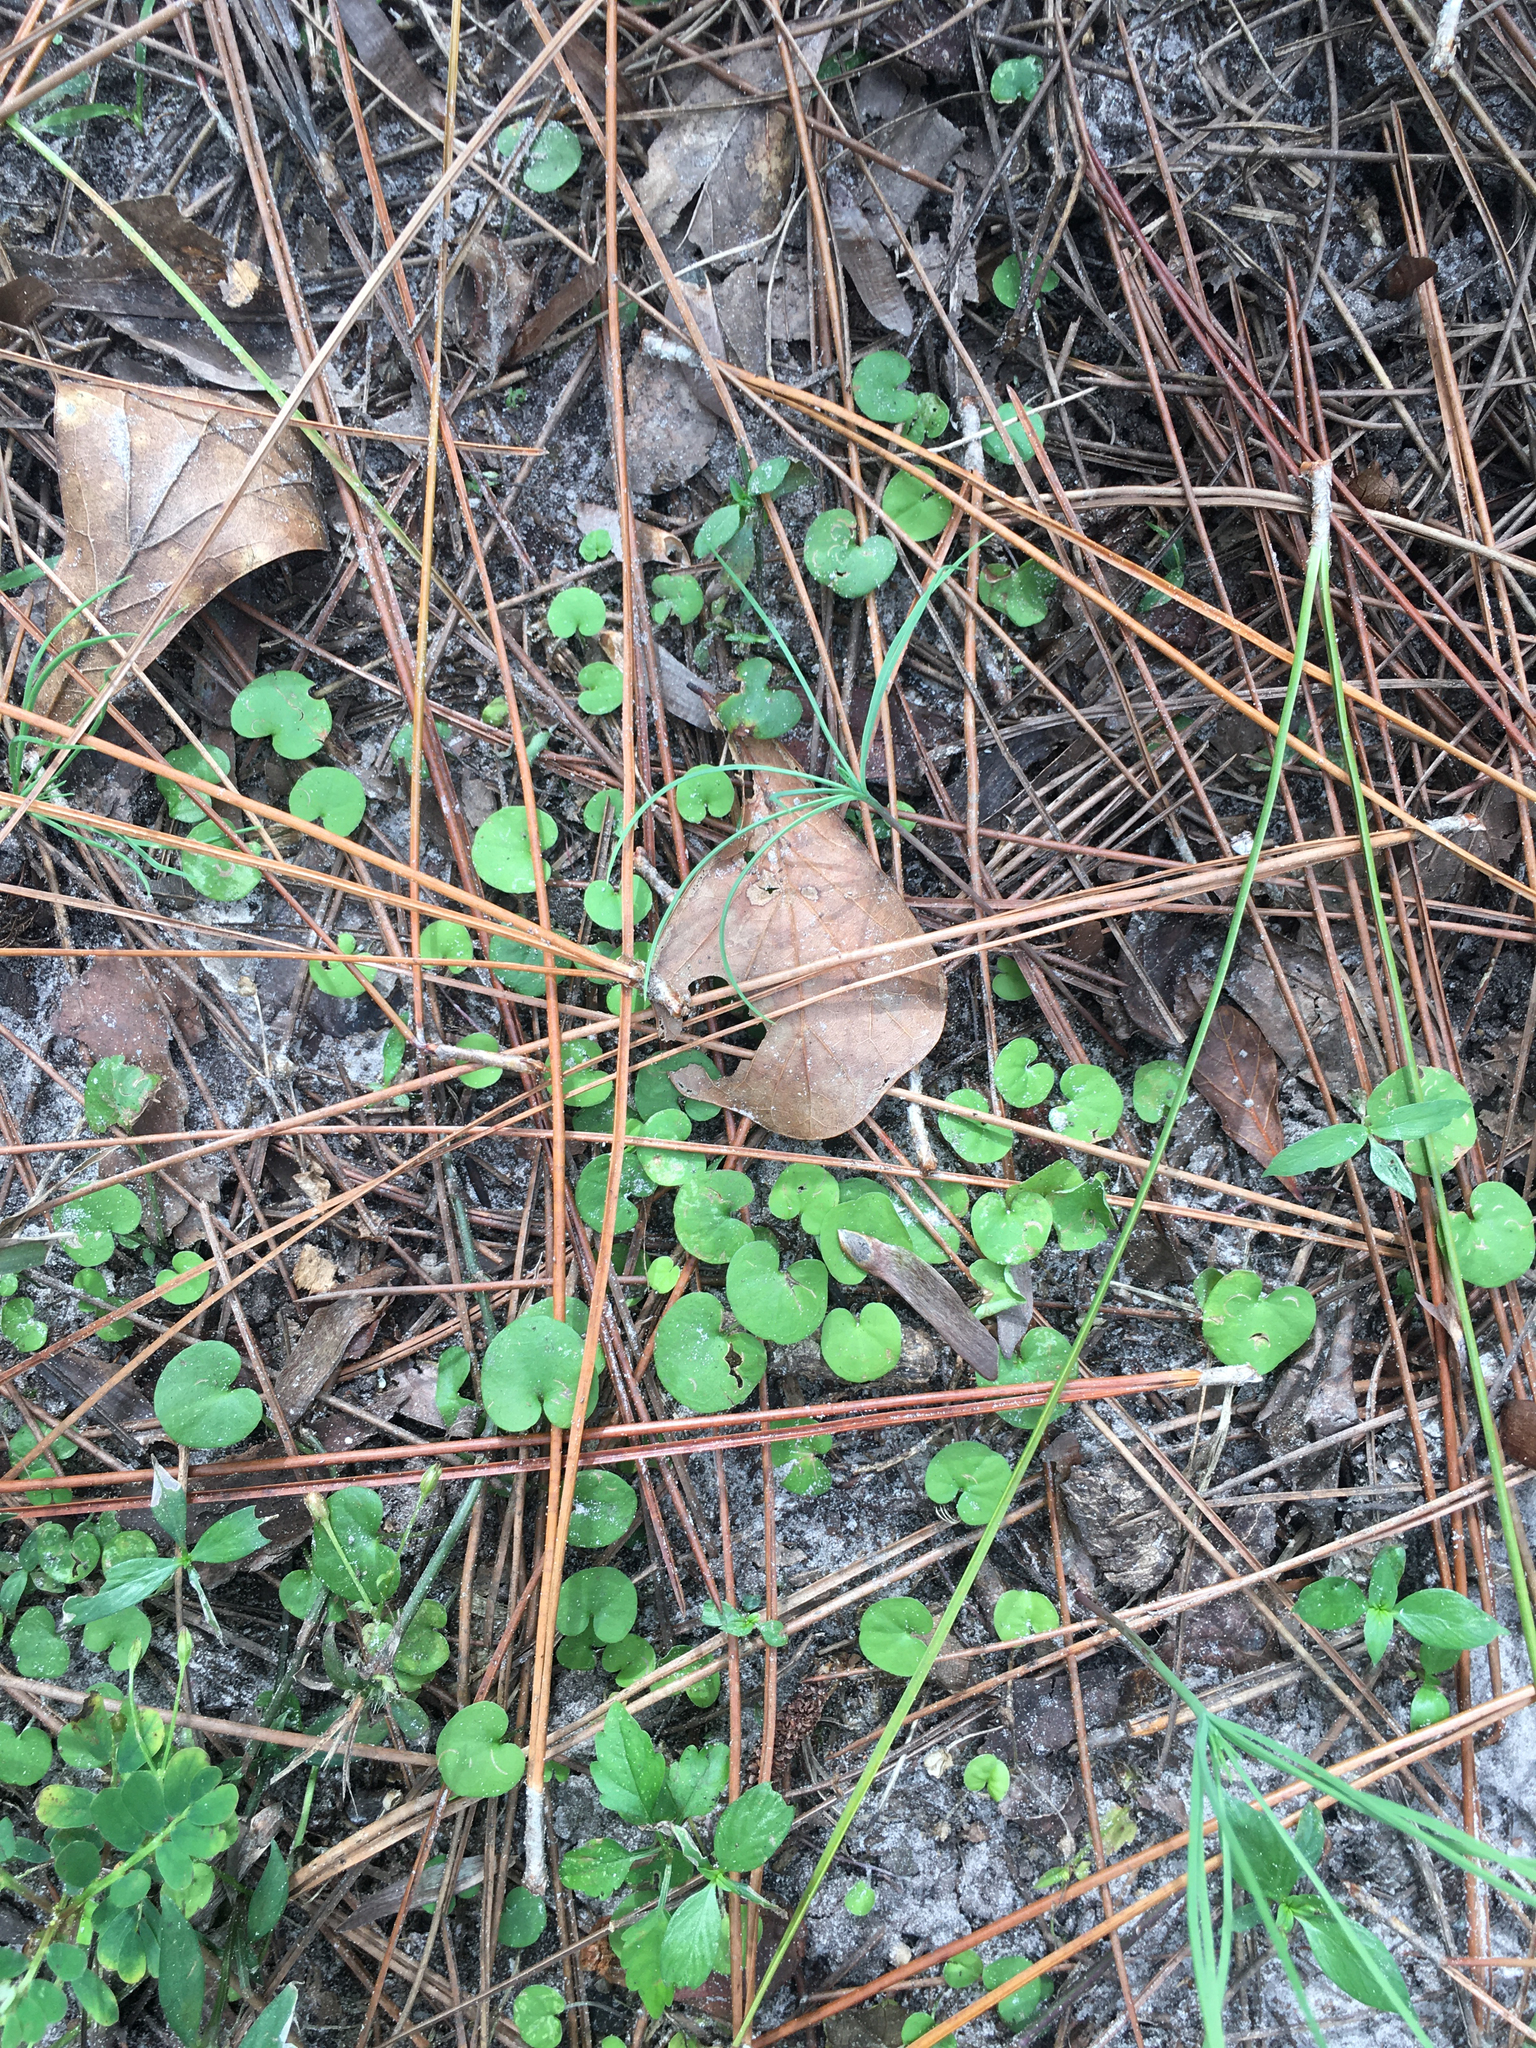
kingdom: Plantae
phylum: Tracheophyta
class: Magnoliopsida
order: Solanales
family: Convolvulaceae
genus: Dichondra
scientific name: Dichondra carolinensis
